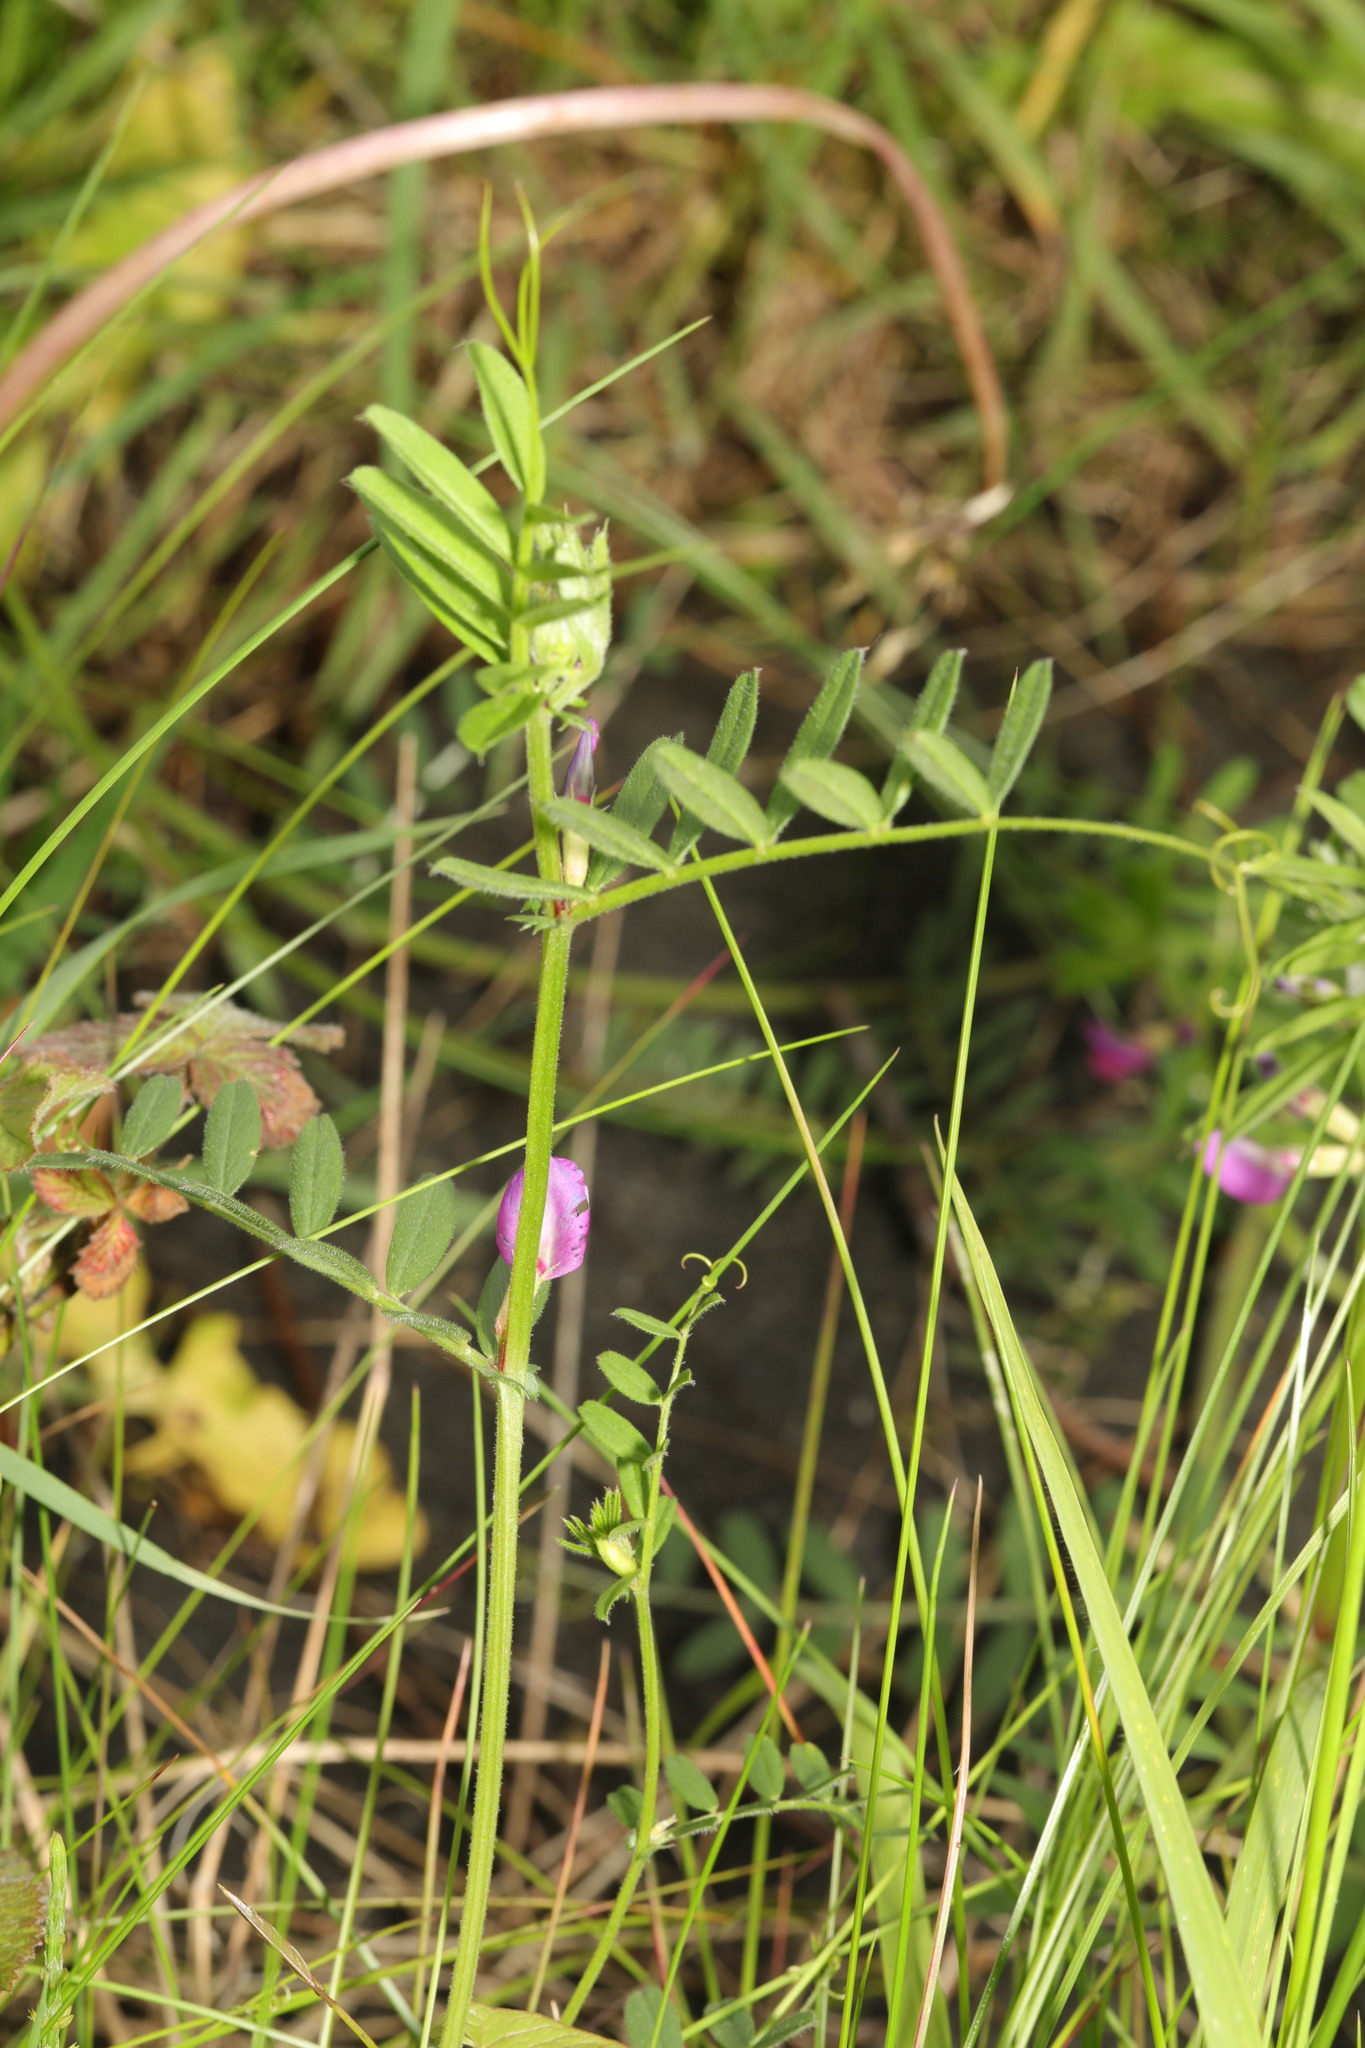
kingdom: Plantae
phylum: Tracheophyta
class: Magnoliopsida
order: Fabales
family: Fabaceae
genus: Vicia
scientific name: Vicia sativa
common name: Garden vetch
